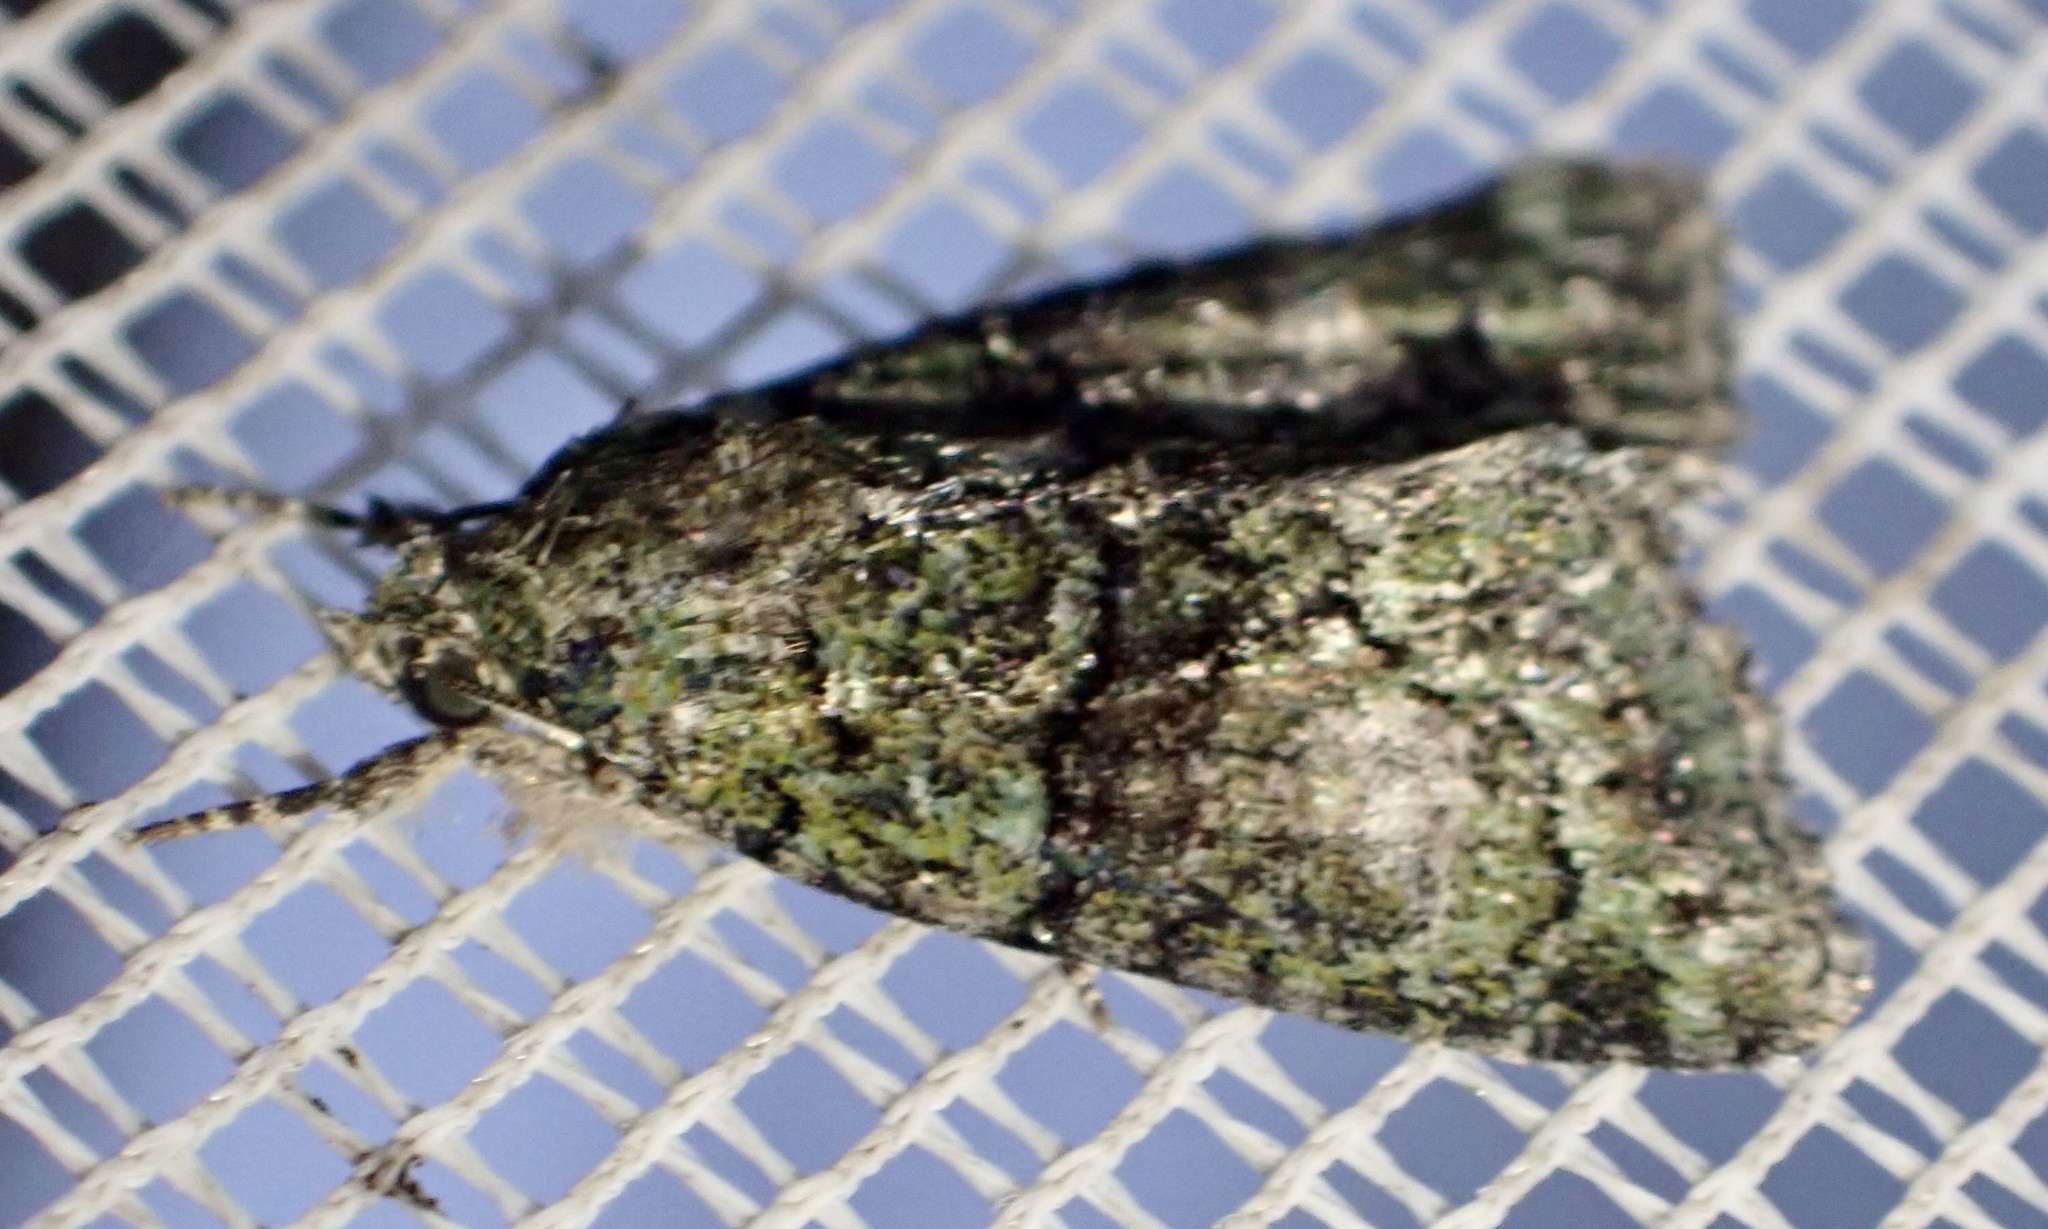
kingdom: Animalia
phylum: Arthropoda
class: Insecta
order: Lepidoptera
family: Noctuidae
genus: Cryphia
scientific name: Cryphia algae
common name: Tree-lichen beauty
